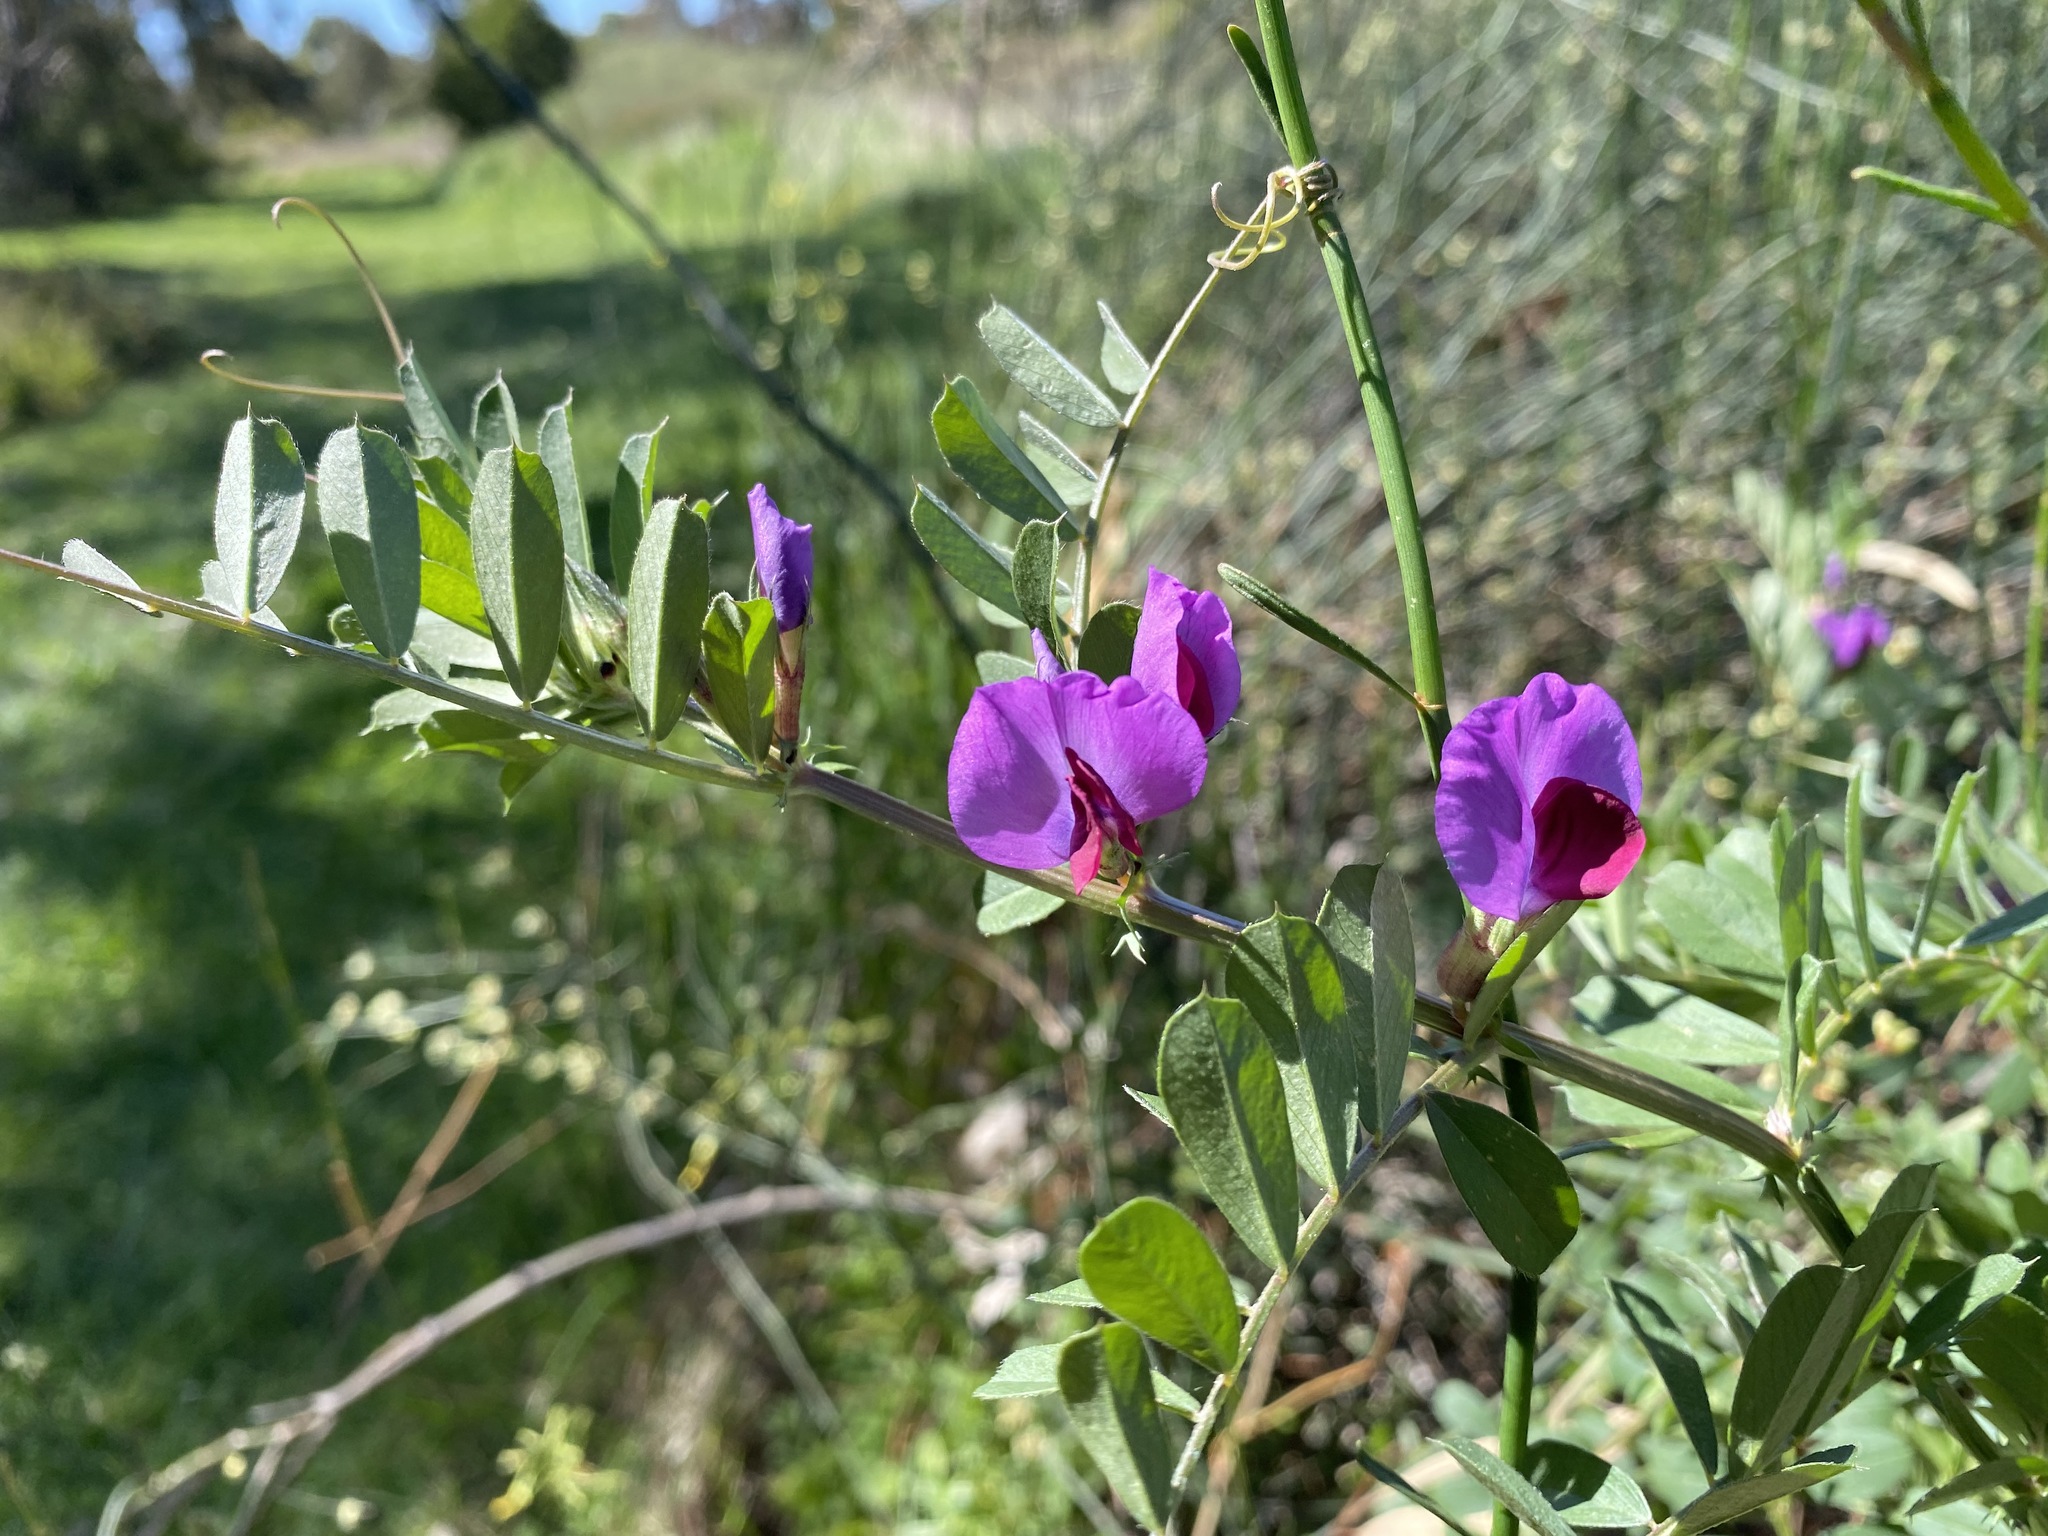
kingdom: Plantae
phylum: Tracheophyta
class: Magnoliopsida
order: Fabales
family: Fabaceae
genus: Vicia
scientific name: Vicia sativa
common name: Garden vetch
